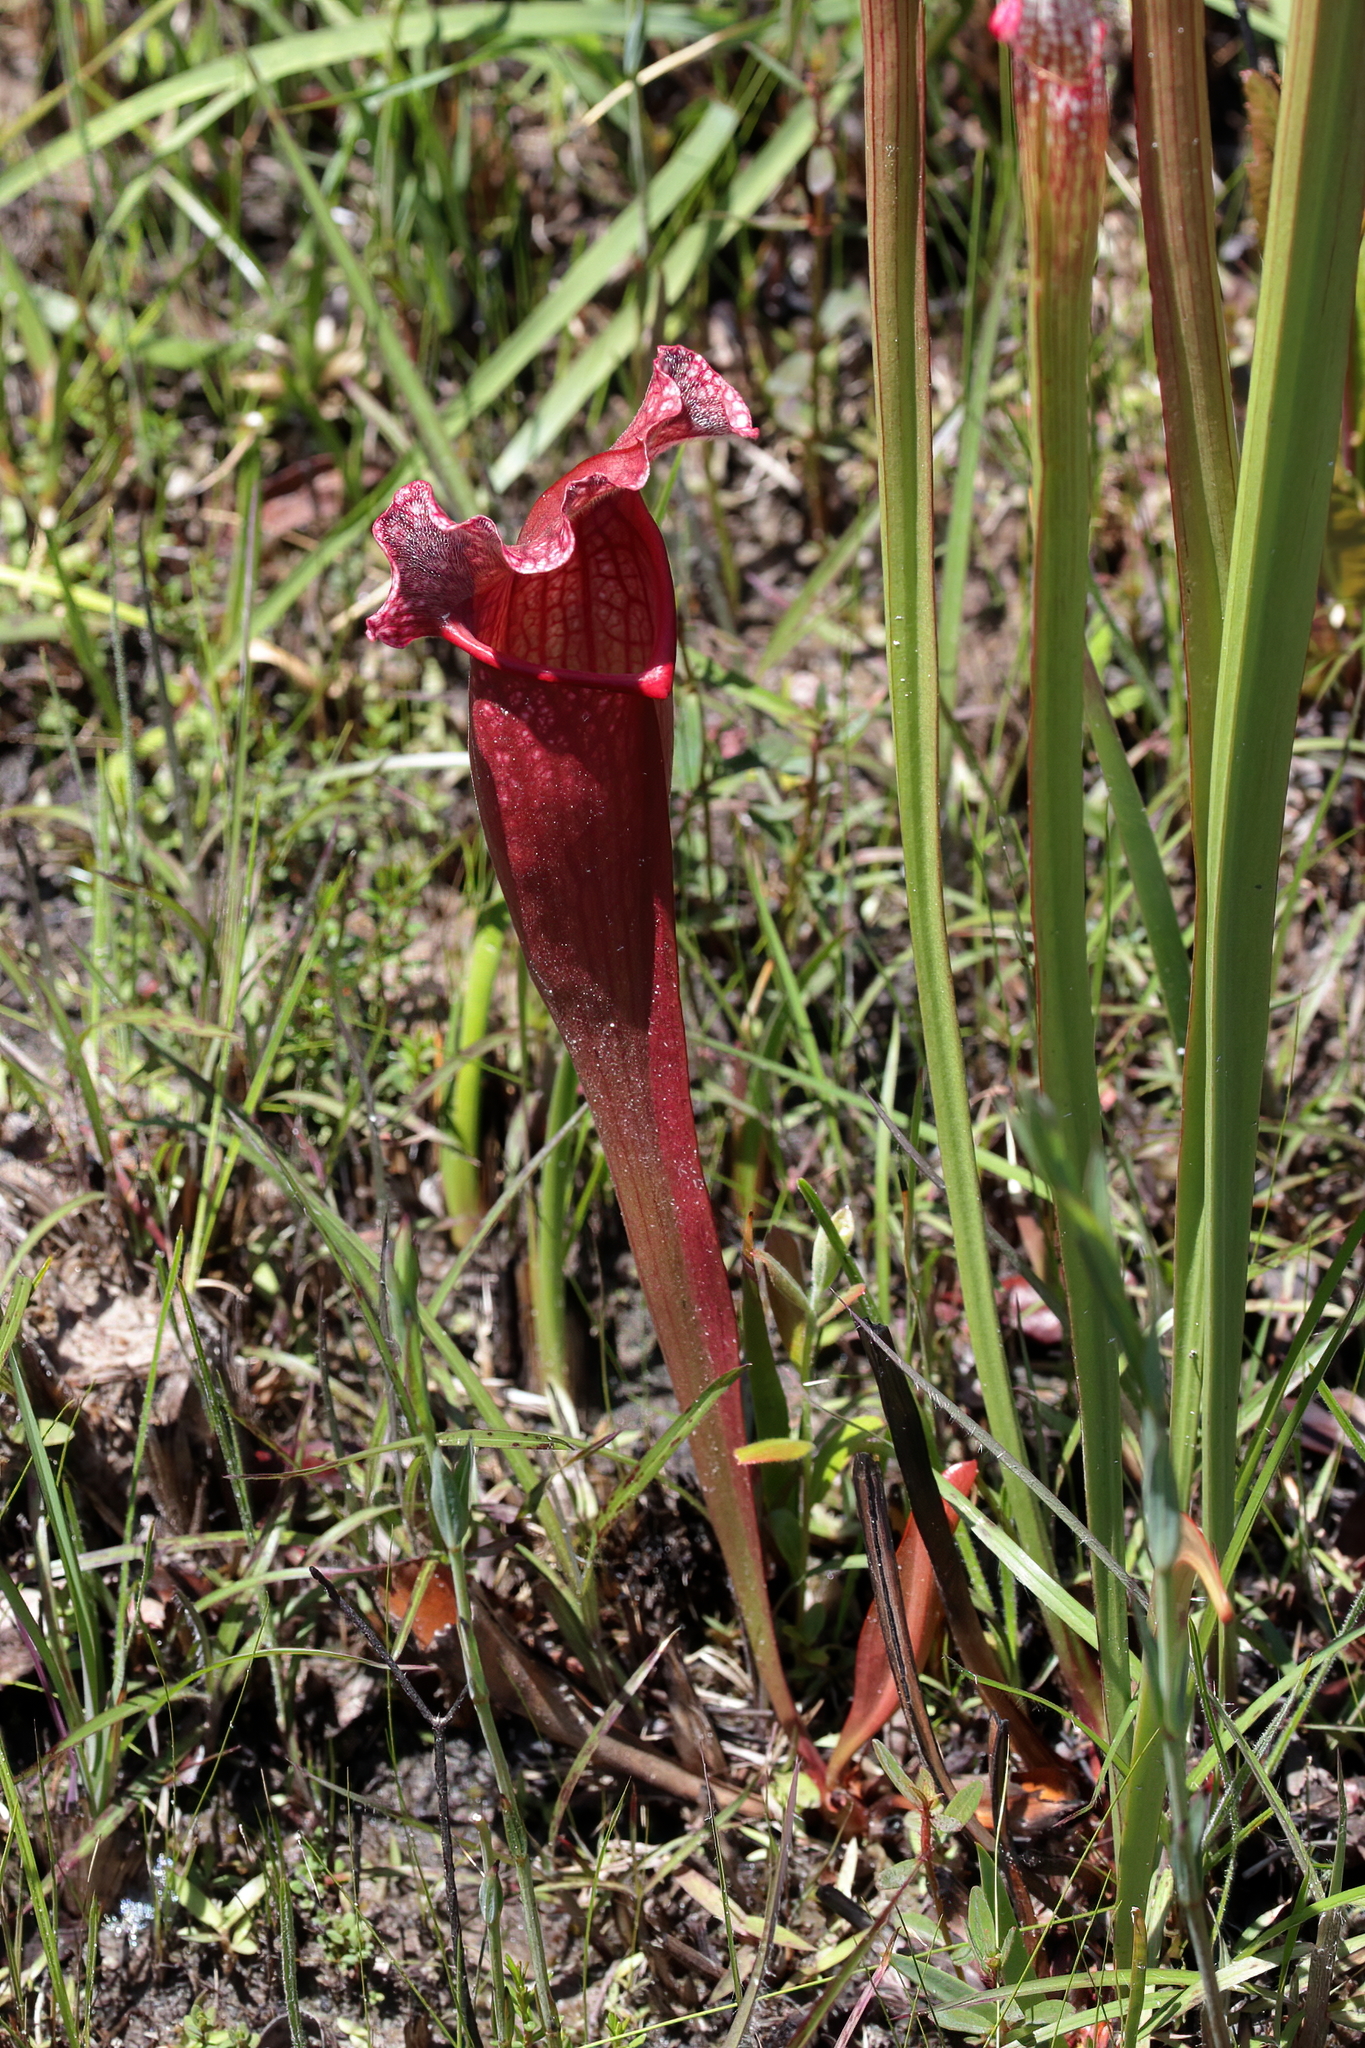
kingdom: Plantae
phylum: Tracheophyta
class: Magnoliopsida
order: Ericales
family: Sarraceniaceae
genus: Sarracenia
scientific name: Sarracenia mitchelliana
